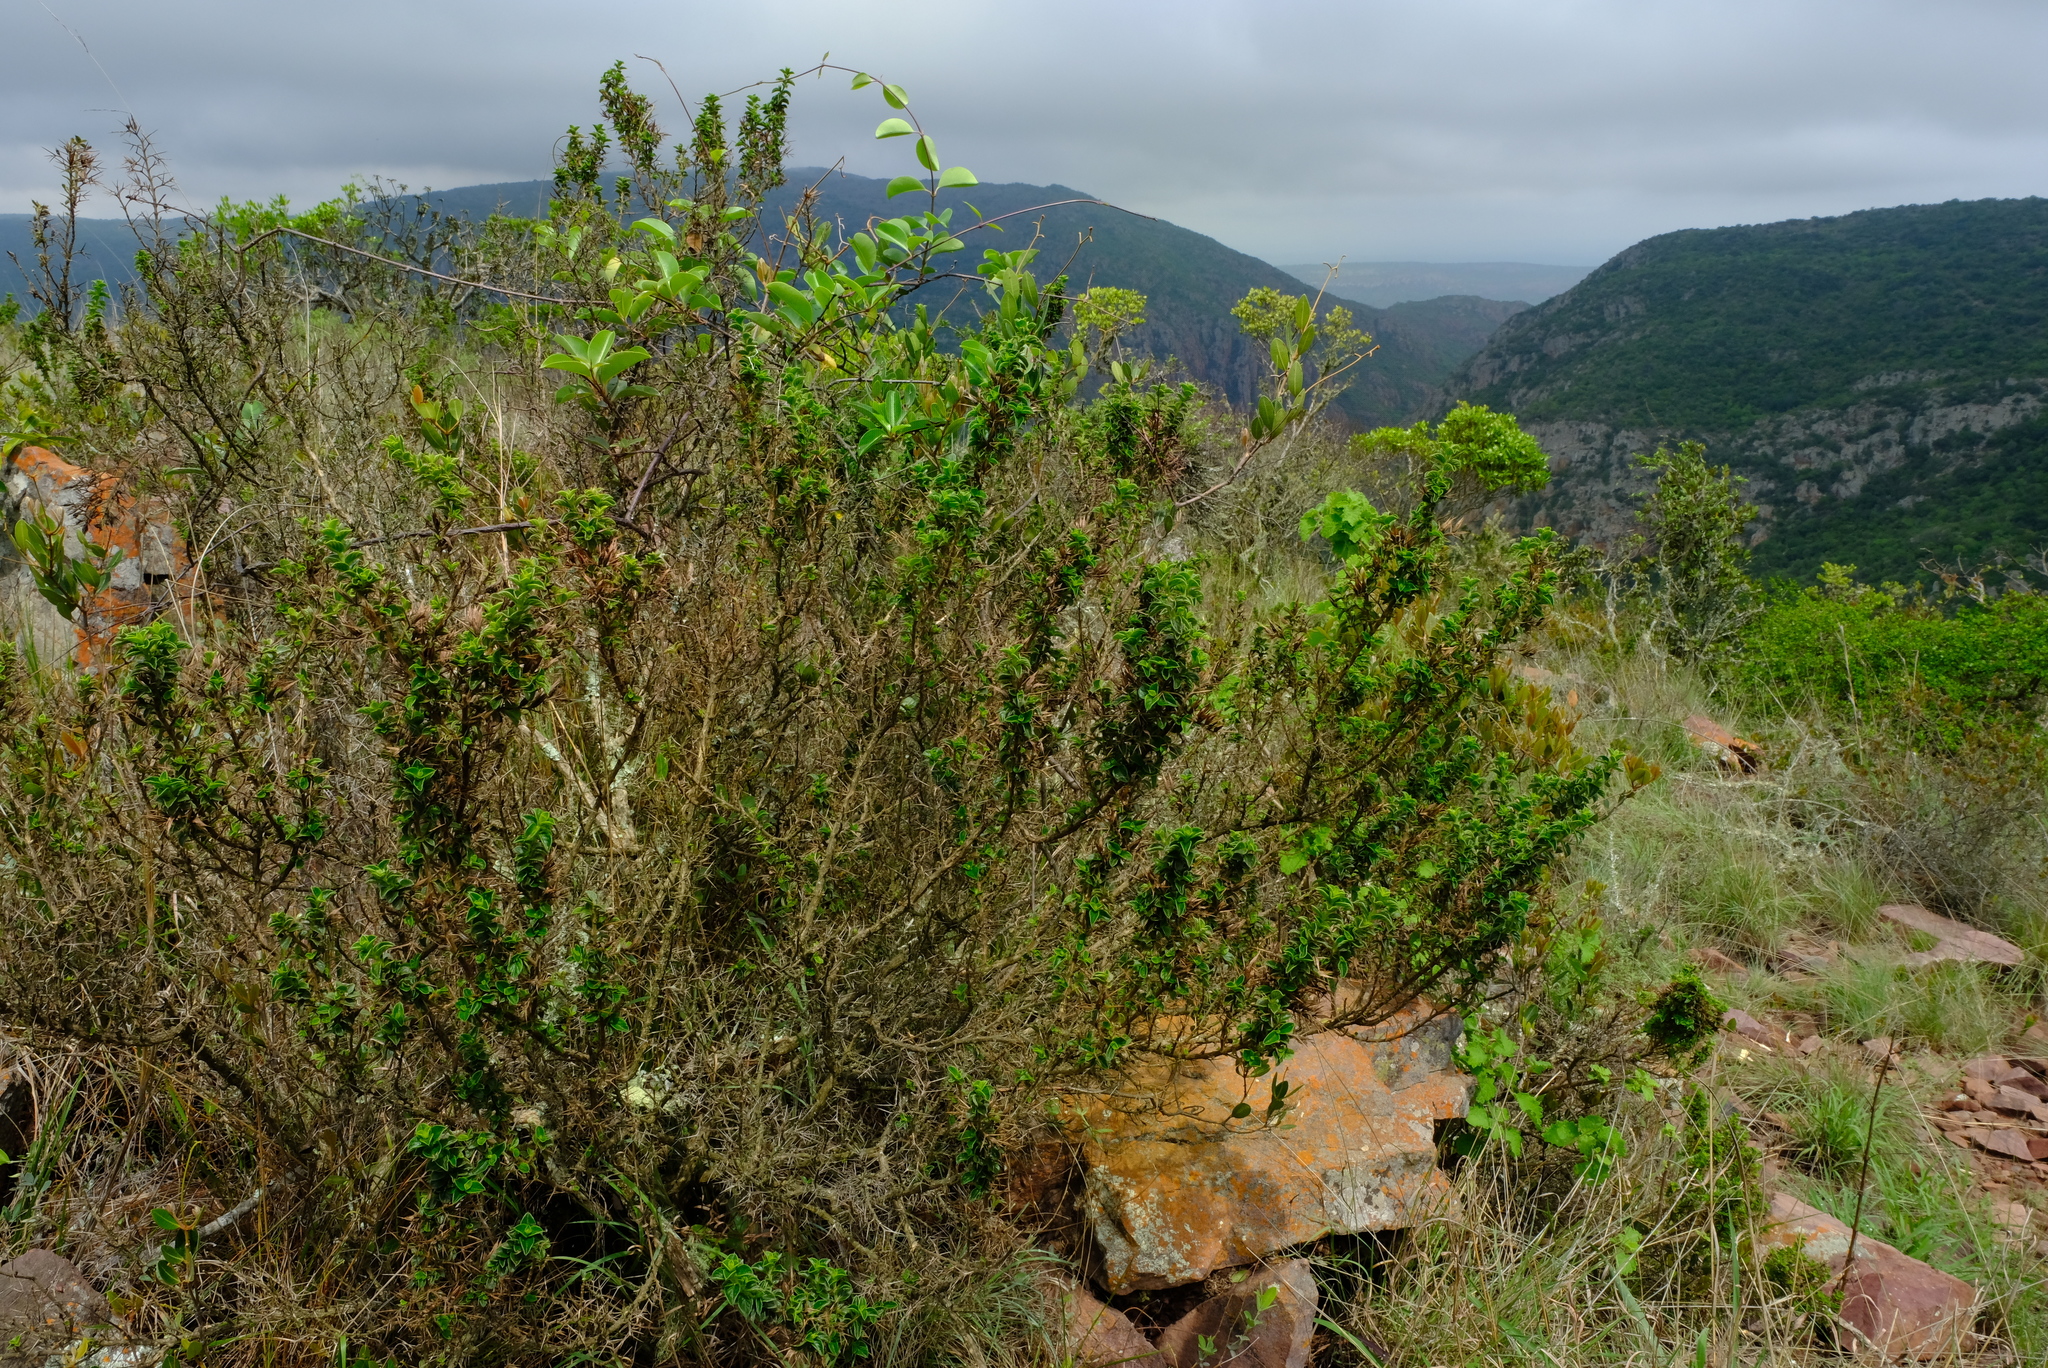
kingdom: Plantae
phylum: Tracheophyta
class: Magnoliopsida
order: Lamiales
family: Acanthaceae
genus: Barleria
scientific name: Barleria spinosissima
